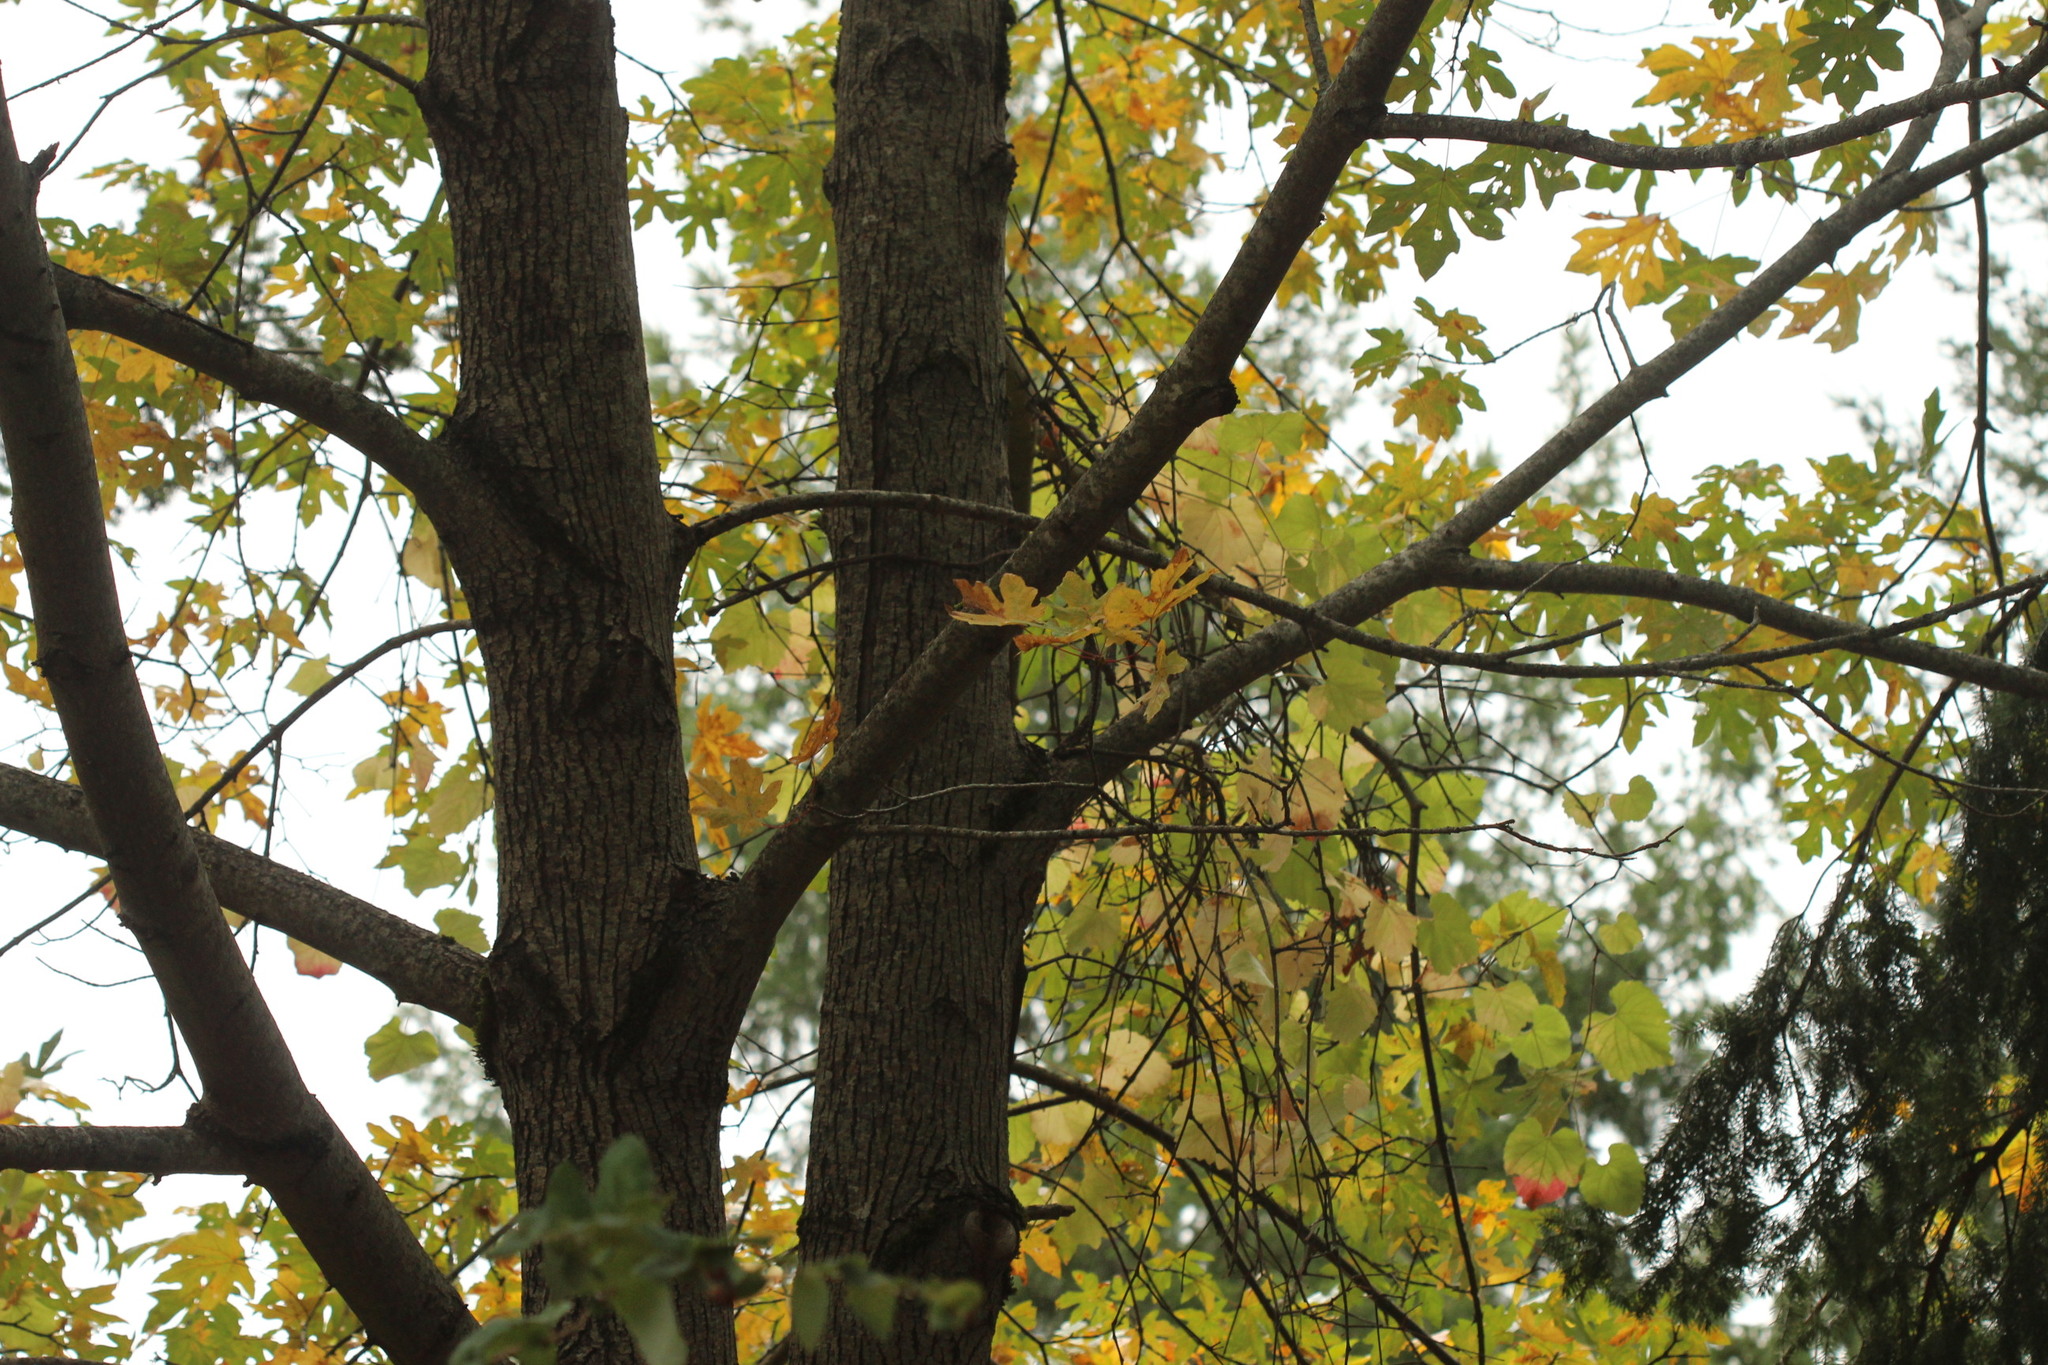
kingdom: Plantae
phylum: Tracheophyta
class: Magnoliopsida
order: Sapindales
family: Sapindaceae
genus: Acer
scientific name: Acer macrophyllum
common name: Oregon maple
